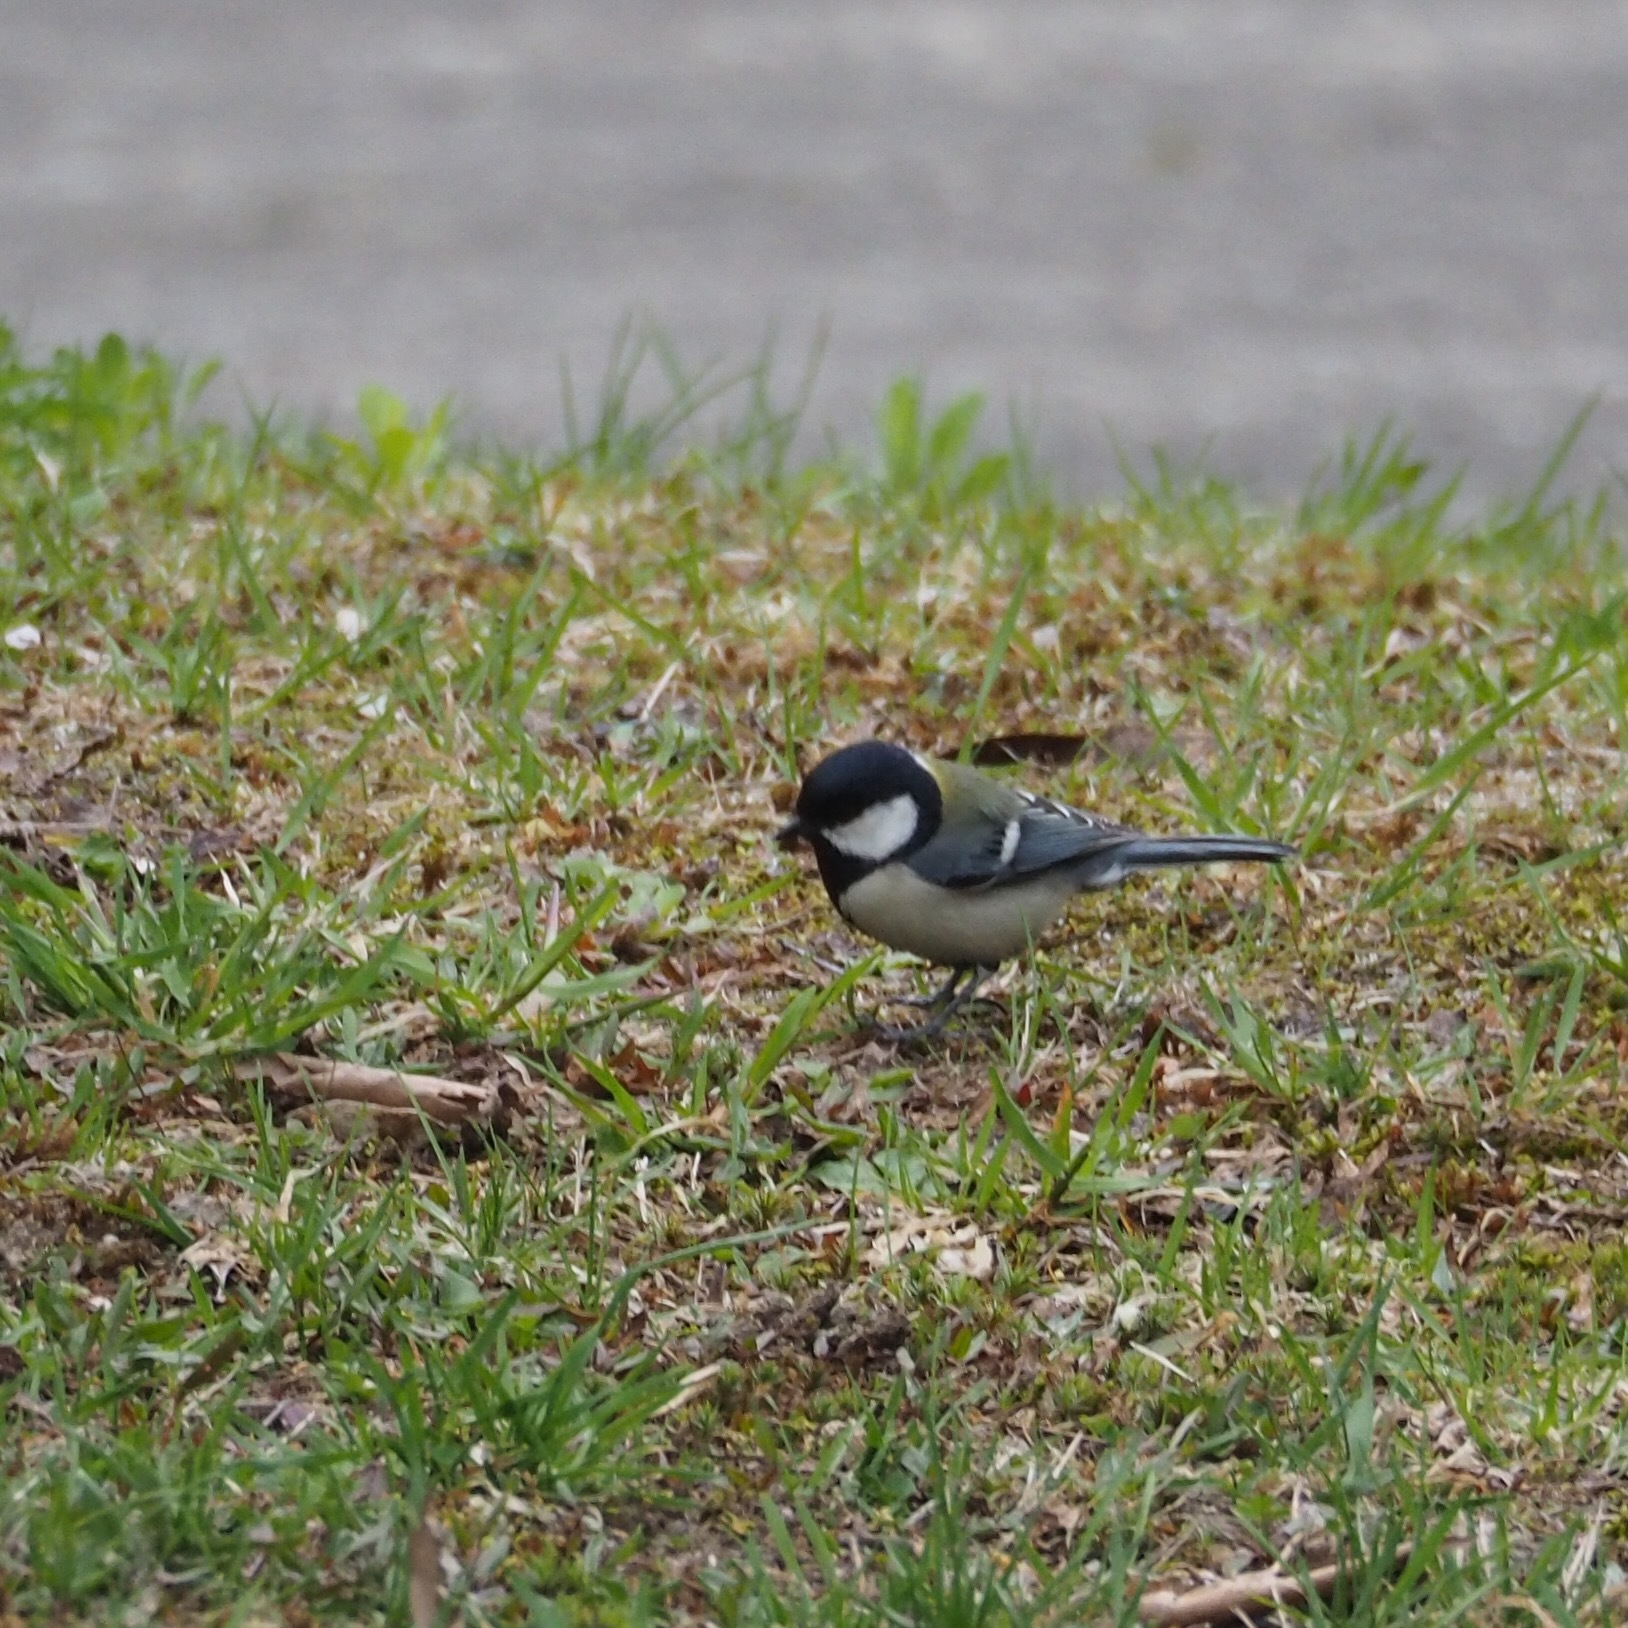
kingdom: Animalia
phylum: Chordata
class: Aves
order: Passeriformes
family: Paridae
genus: Parus
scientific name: Parus minor
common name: Japanese tit
